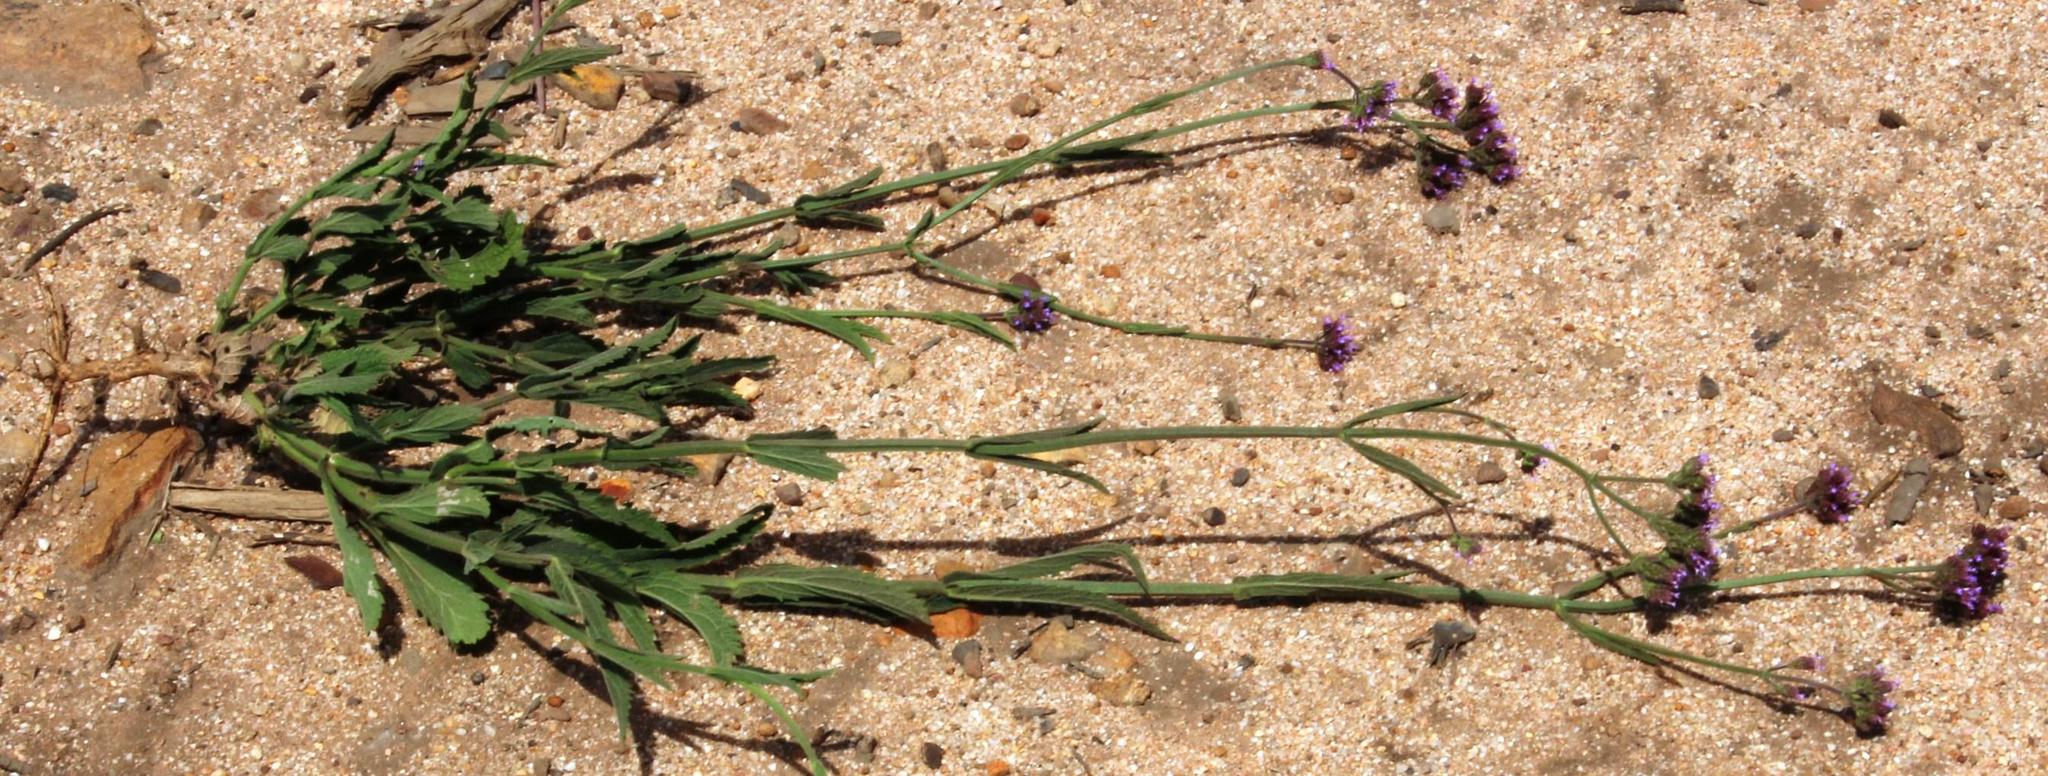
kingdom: Plantae
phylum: Tracheophyta
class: Magnoliopsida
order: Lamiales
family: Verbenaceae
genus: Verbena
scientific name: Verbena bonariensis
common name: Purpletop vervain
